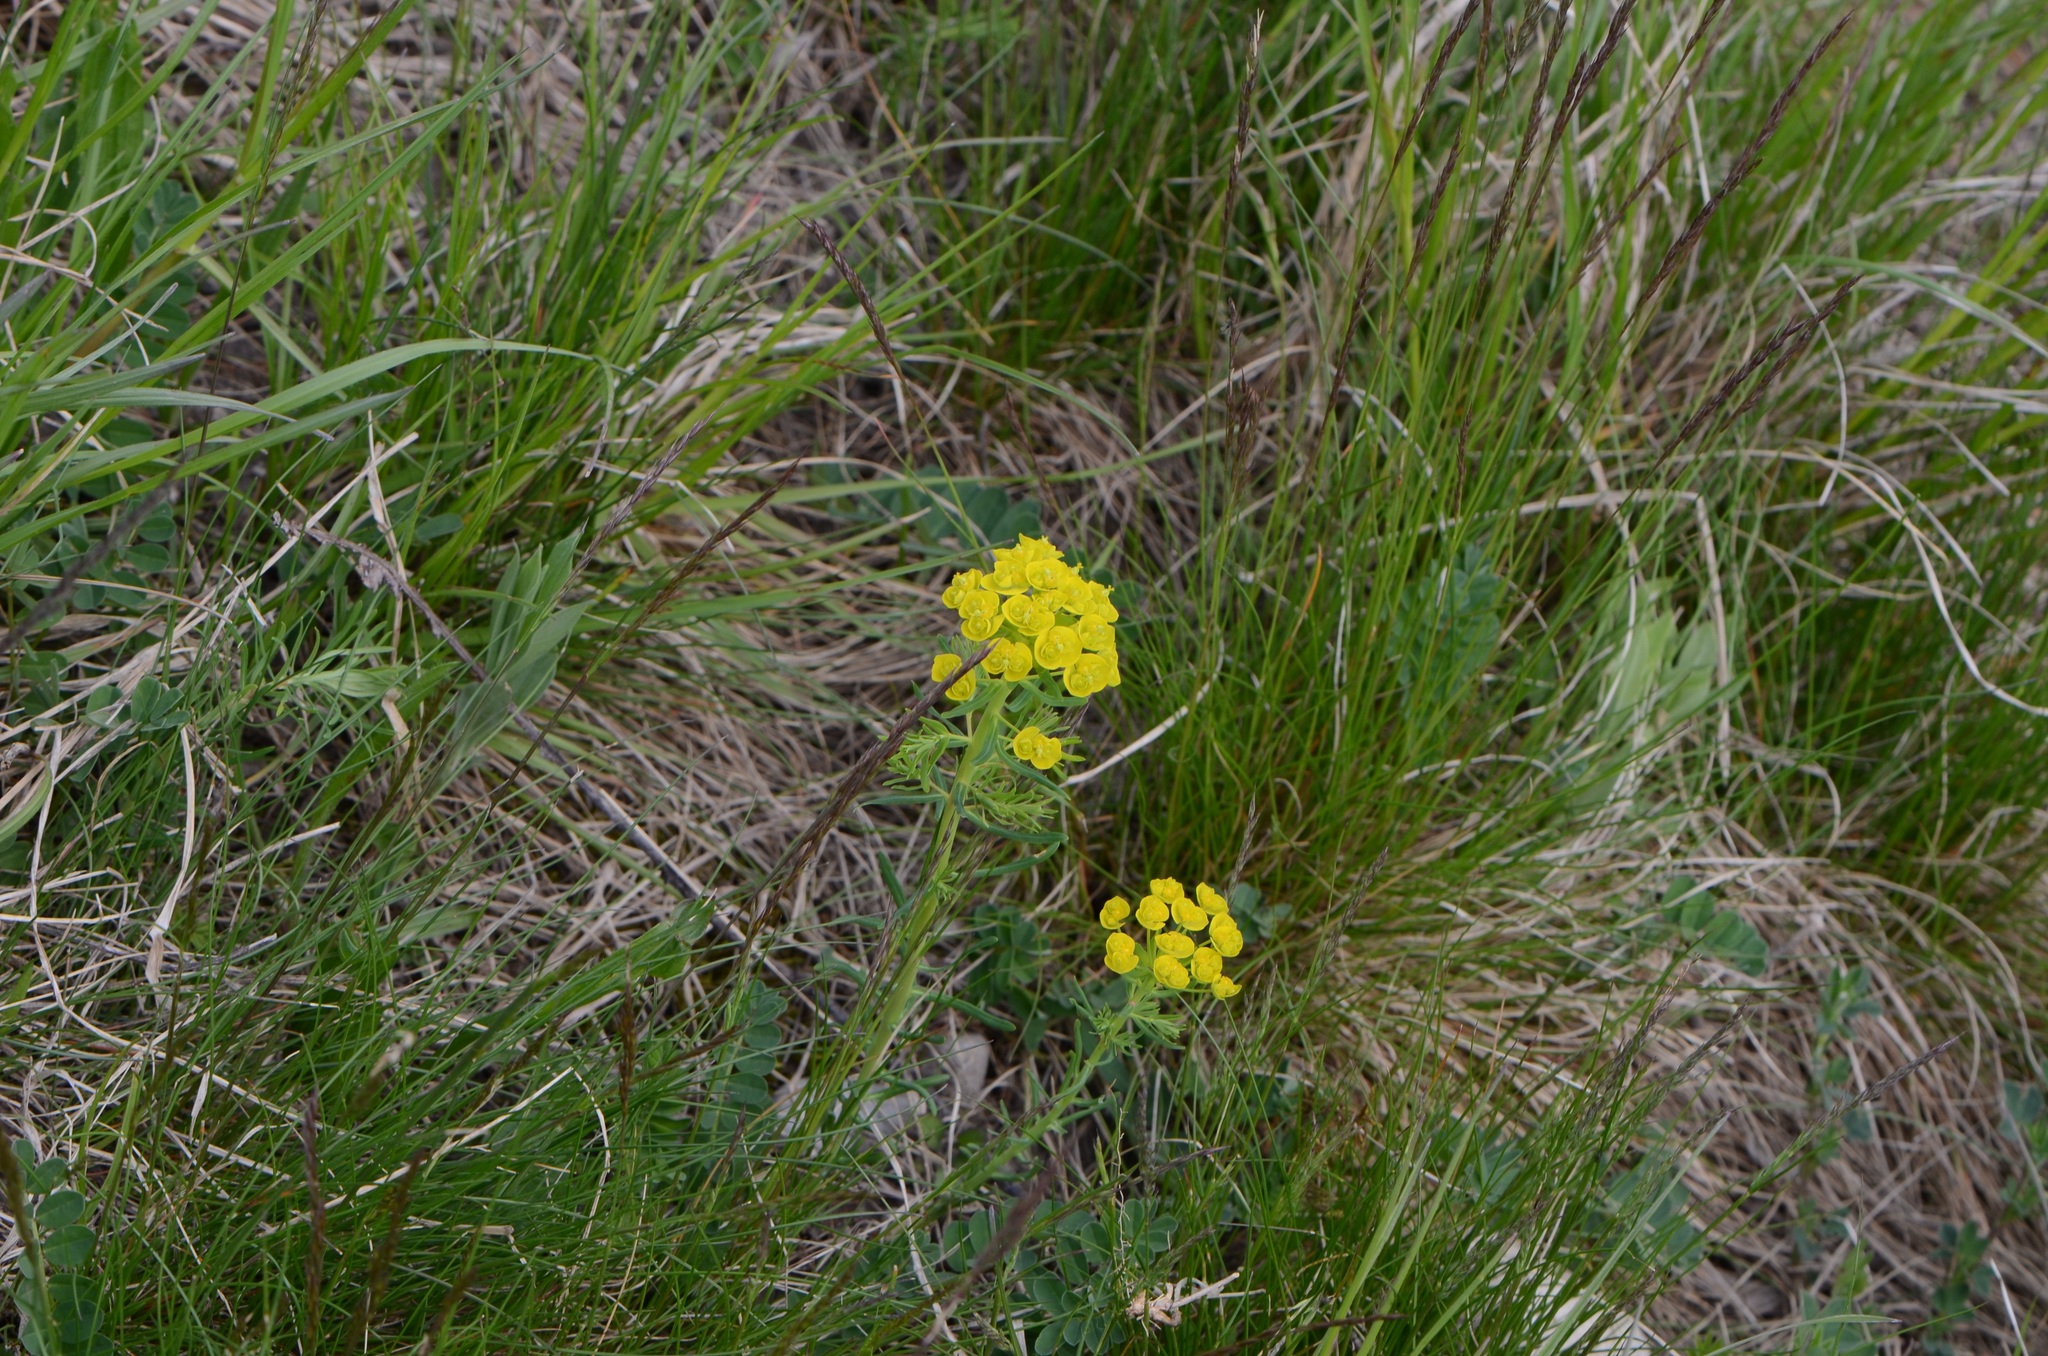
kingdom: Plantae
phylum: Tracheophyta
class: Magnoliopsida
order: Malpighiales
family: Euphorbiaceae
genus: Euphorbia
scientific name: Euphorbia cyparissias
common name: Cypress spurge
